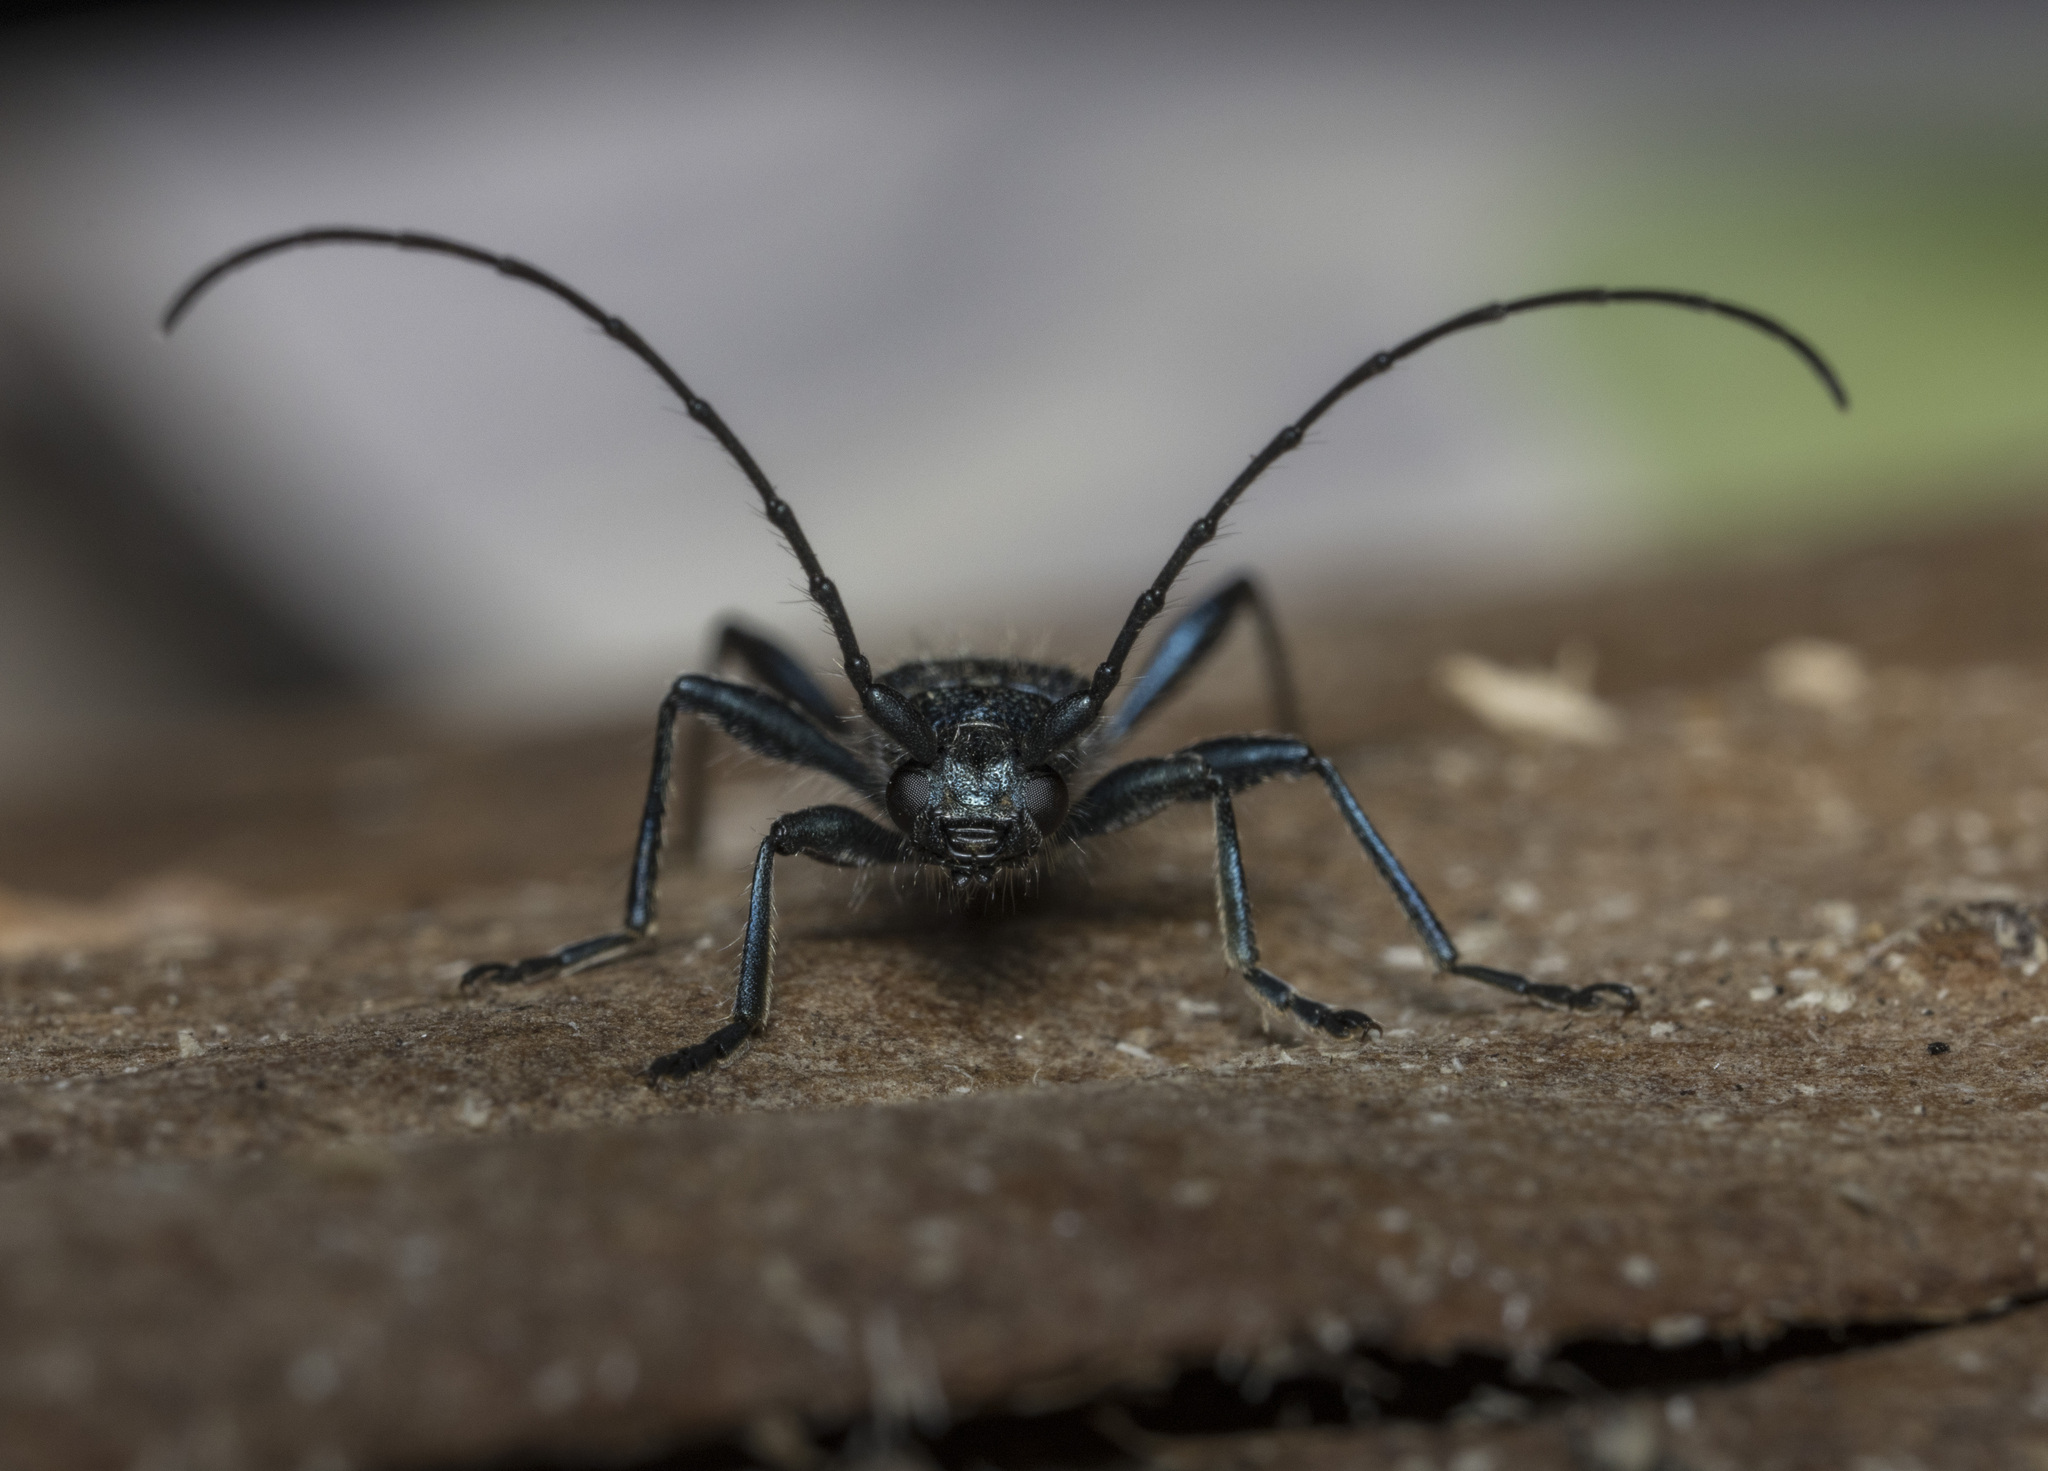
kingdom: Animalia
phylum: Arthropoda
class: Insecta
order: Coleoptera
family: Cerambycidae
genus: Eryphus
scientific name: Eryphus laetus
